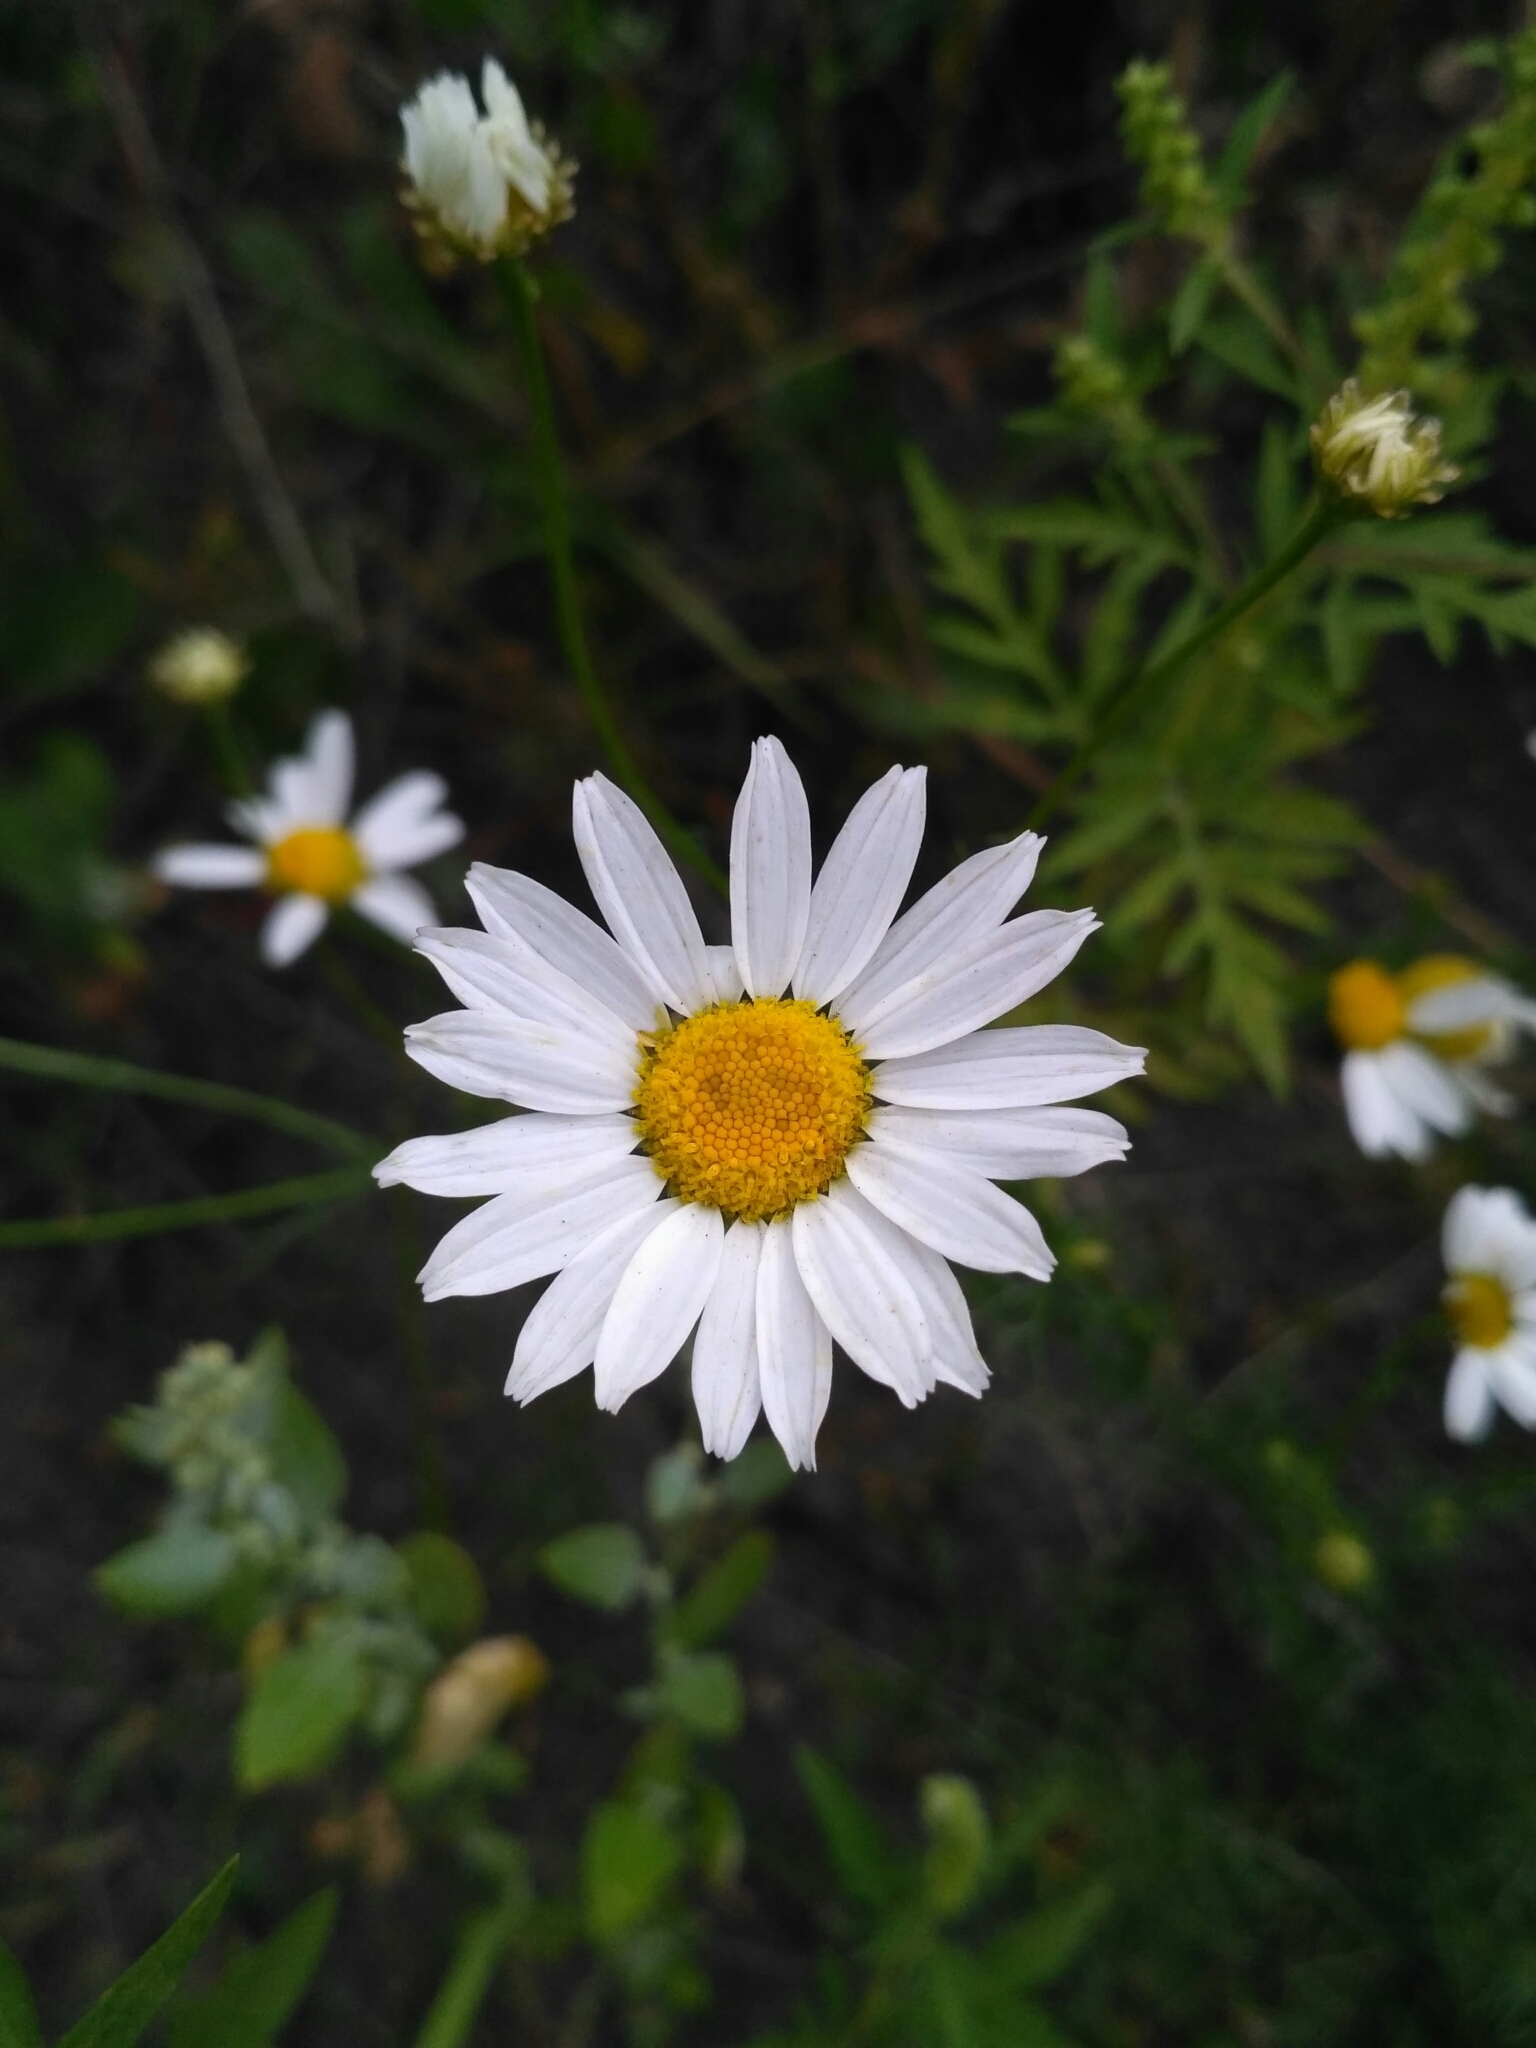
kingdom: Plantae
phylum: Tracheophyta
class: Magnoliopsida
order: Asterales
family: Asteraceae
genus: Tripleurospermum
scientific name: Tripleurospermum inodorum
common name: Scentless mayweed
